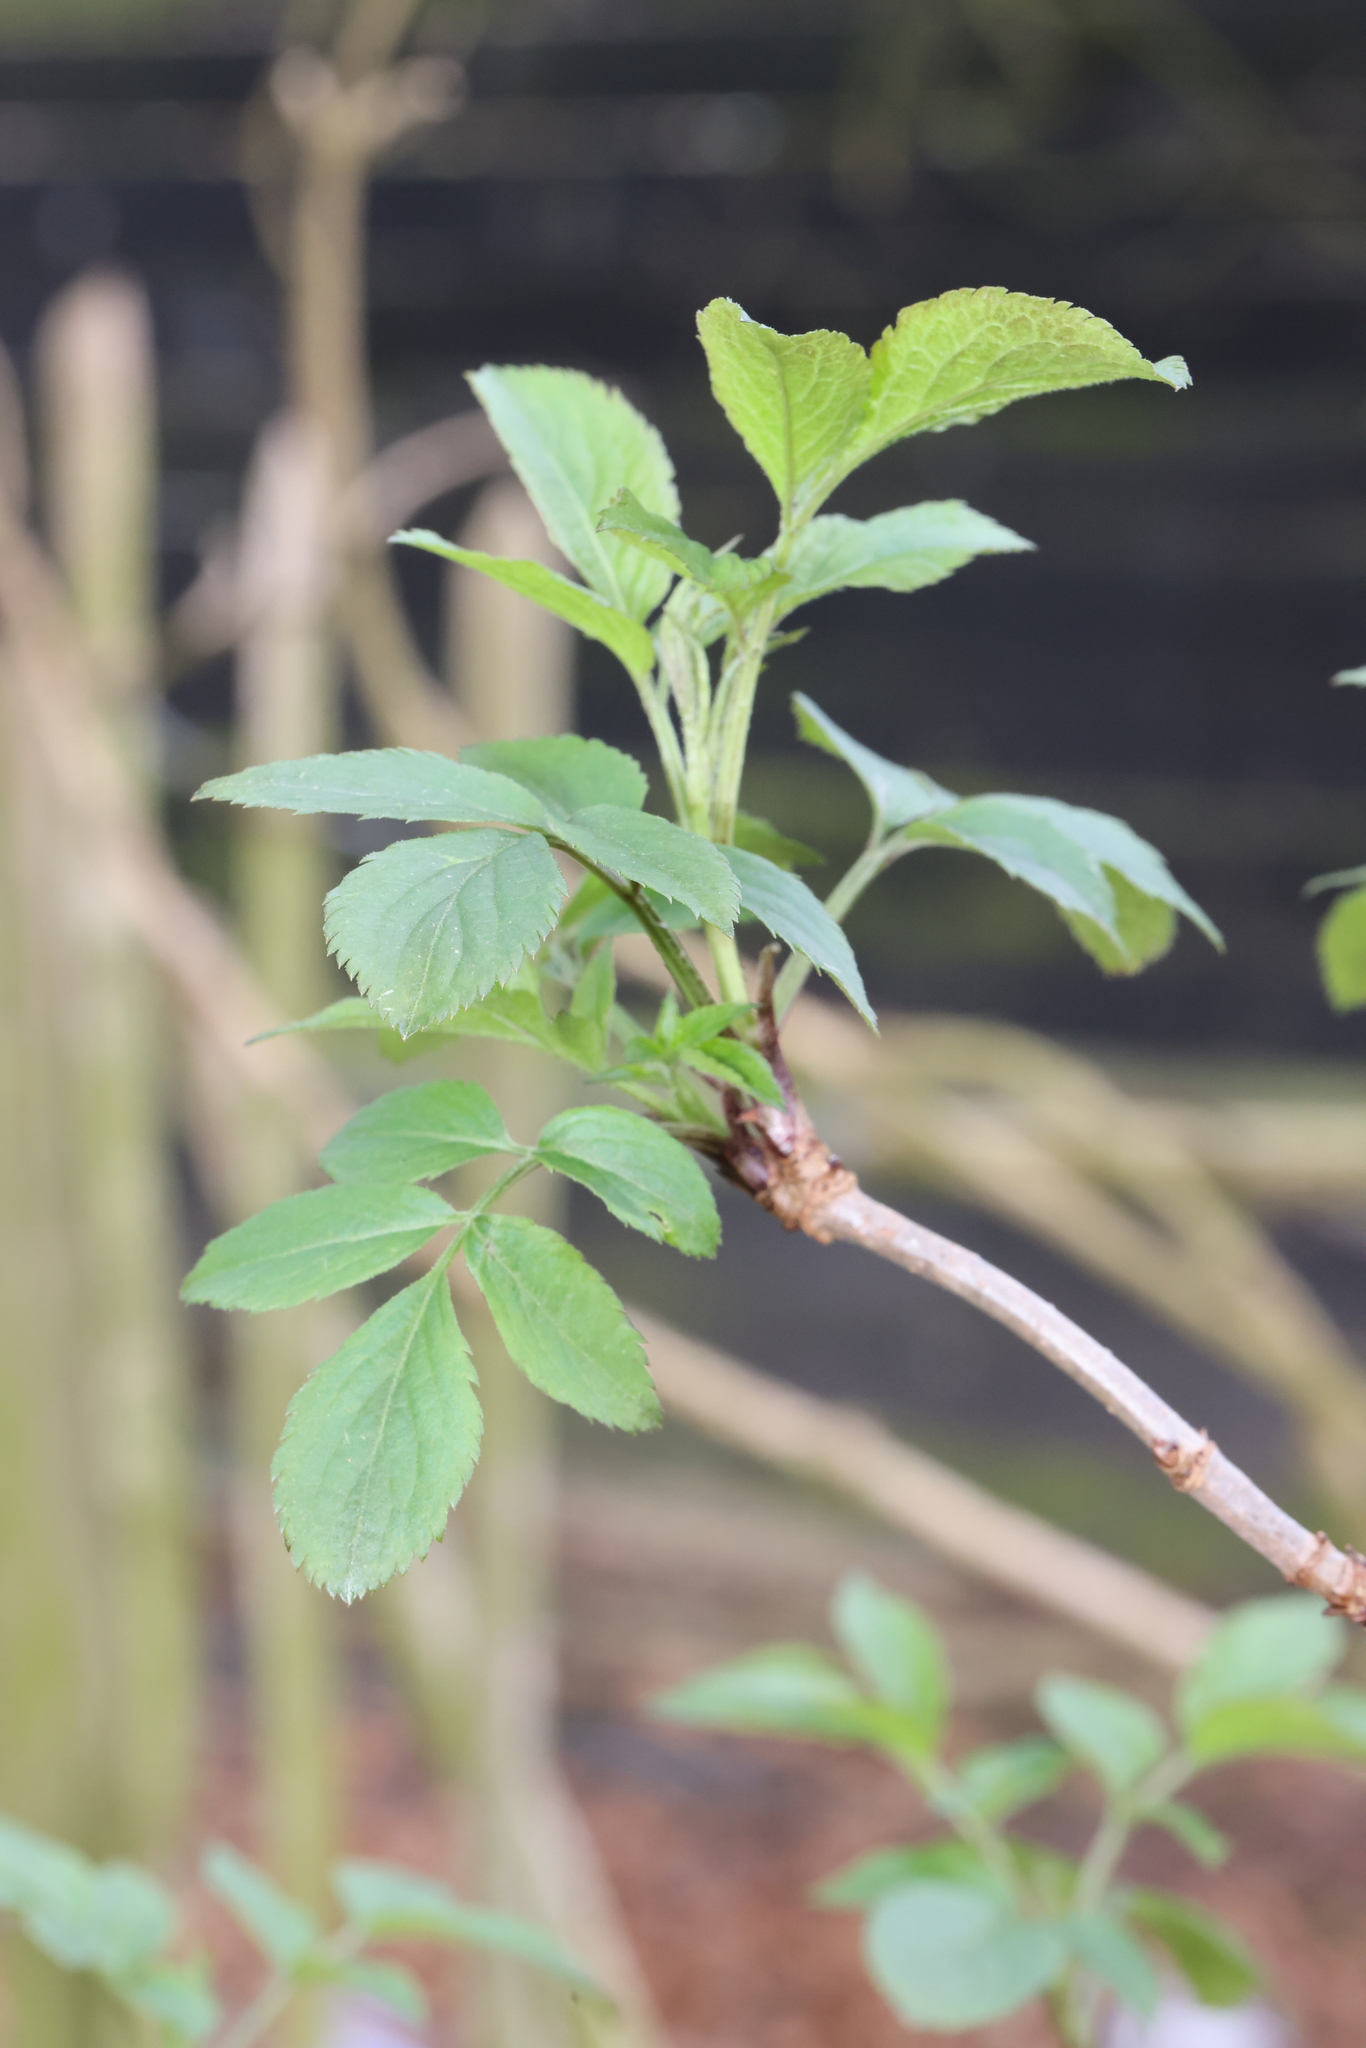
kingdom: Plantae
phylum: Tracheophyta
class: Magnoliopsida
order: Dipsacales
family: Viburnaceae
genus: Sambucus
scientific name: Sambucus nigra
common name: Elder
